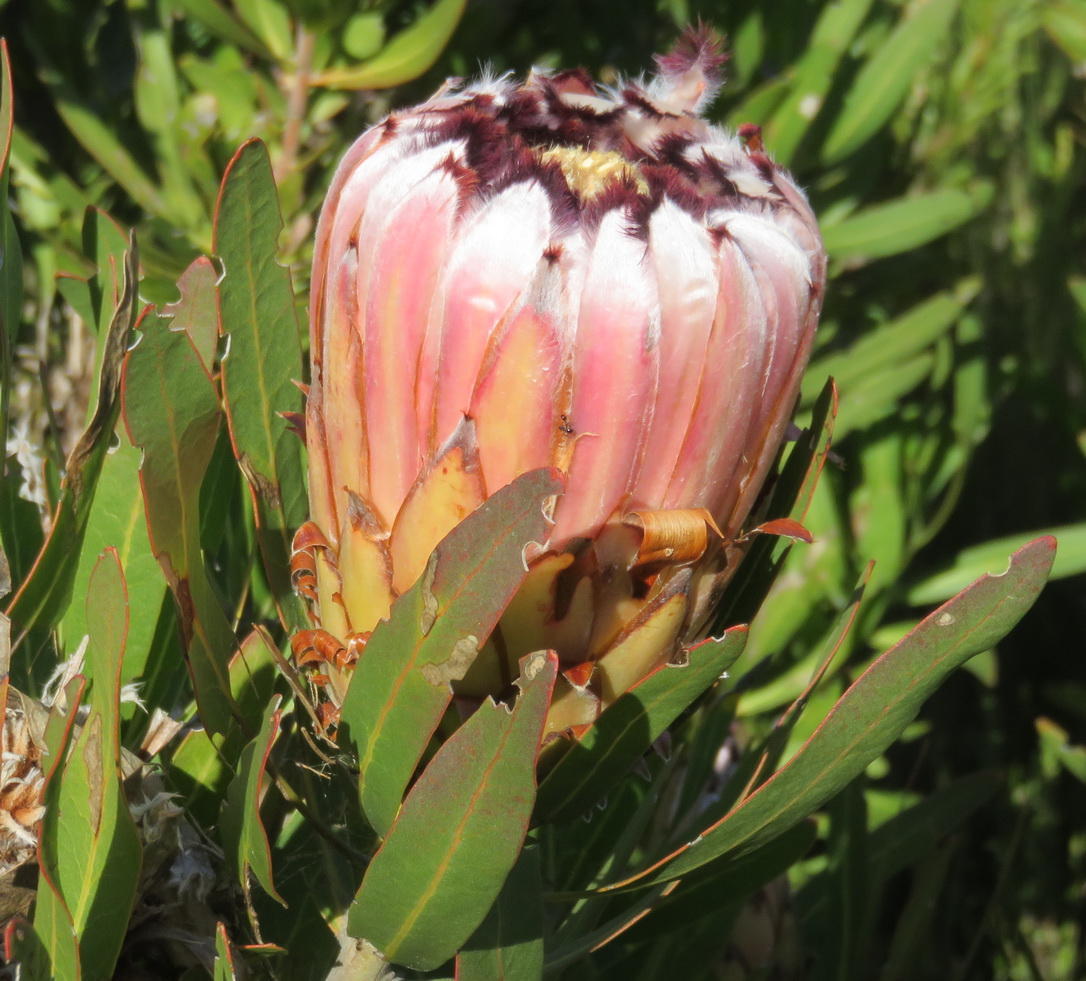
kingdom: Plantae
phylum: Tracheophyta
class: Magnoliopsida
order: Proteales
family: Proteaceae
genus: Protea
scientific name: Protea neriifolia
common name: Blue sugarbush
